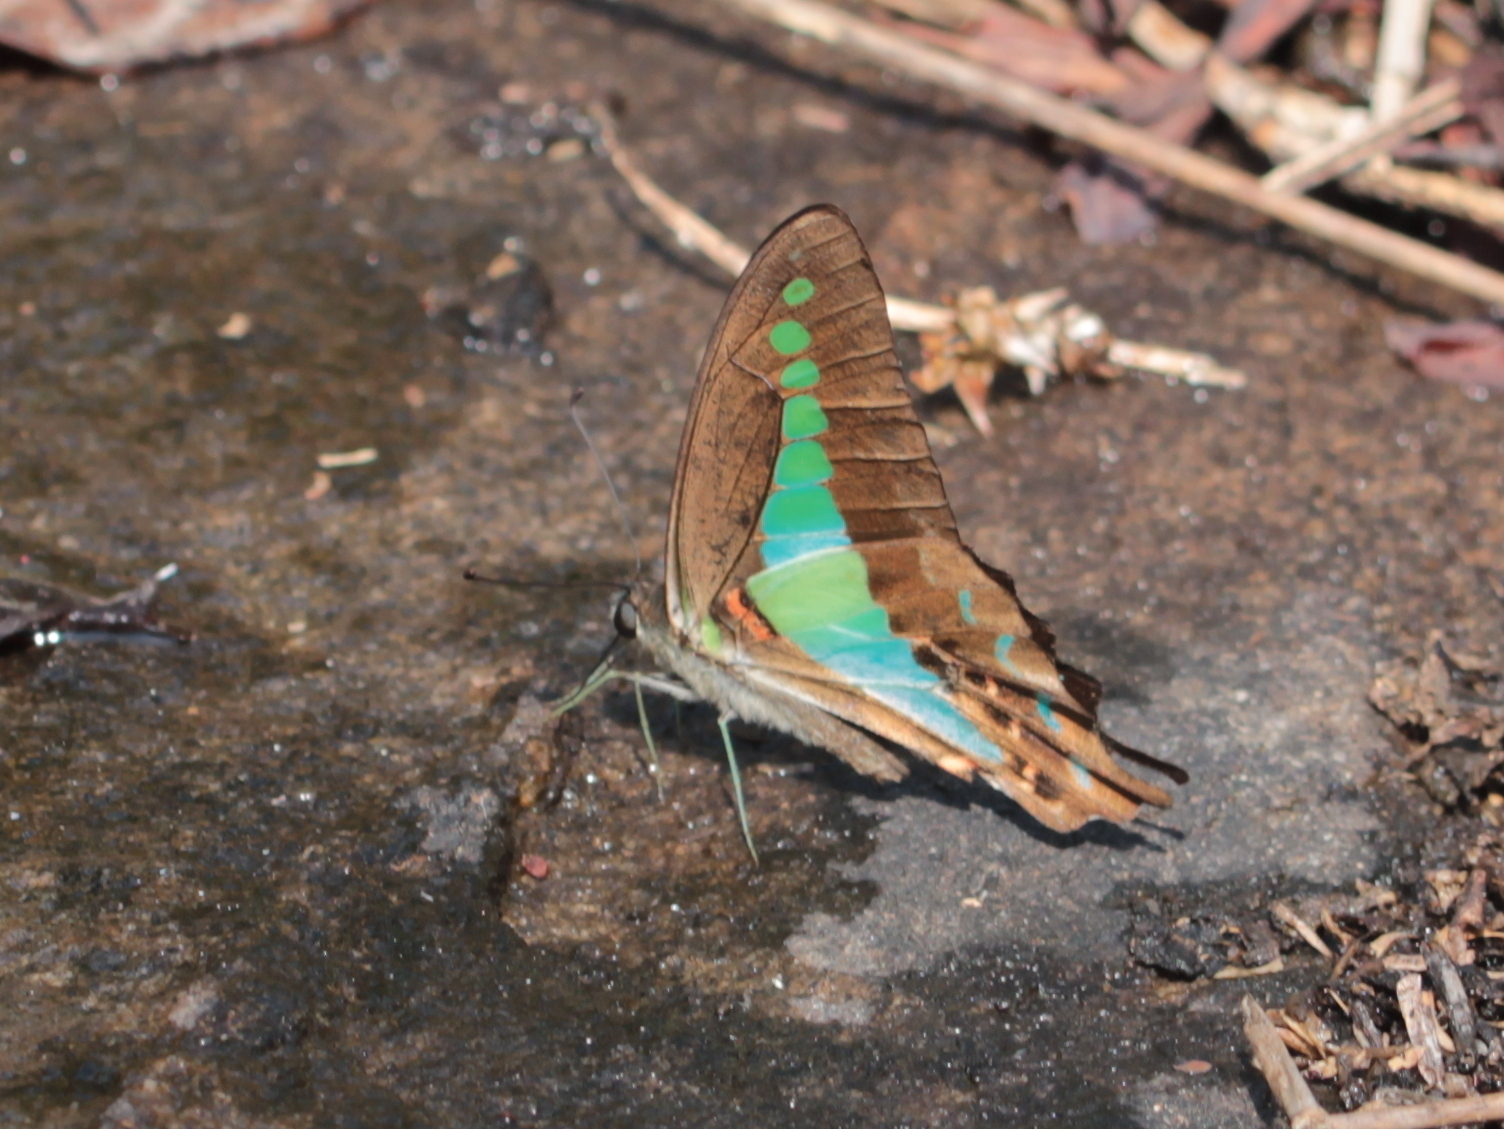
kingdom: Animalia
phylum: Arthropoda
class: Insecta
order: Lepidoptera
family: Papilionidae
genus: Graphium
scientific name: Graphium
